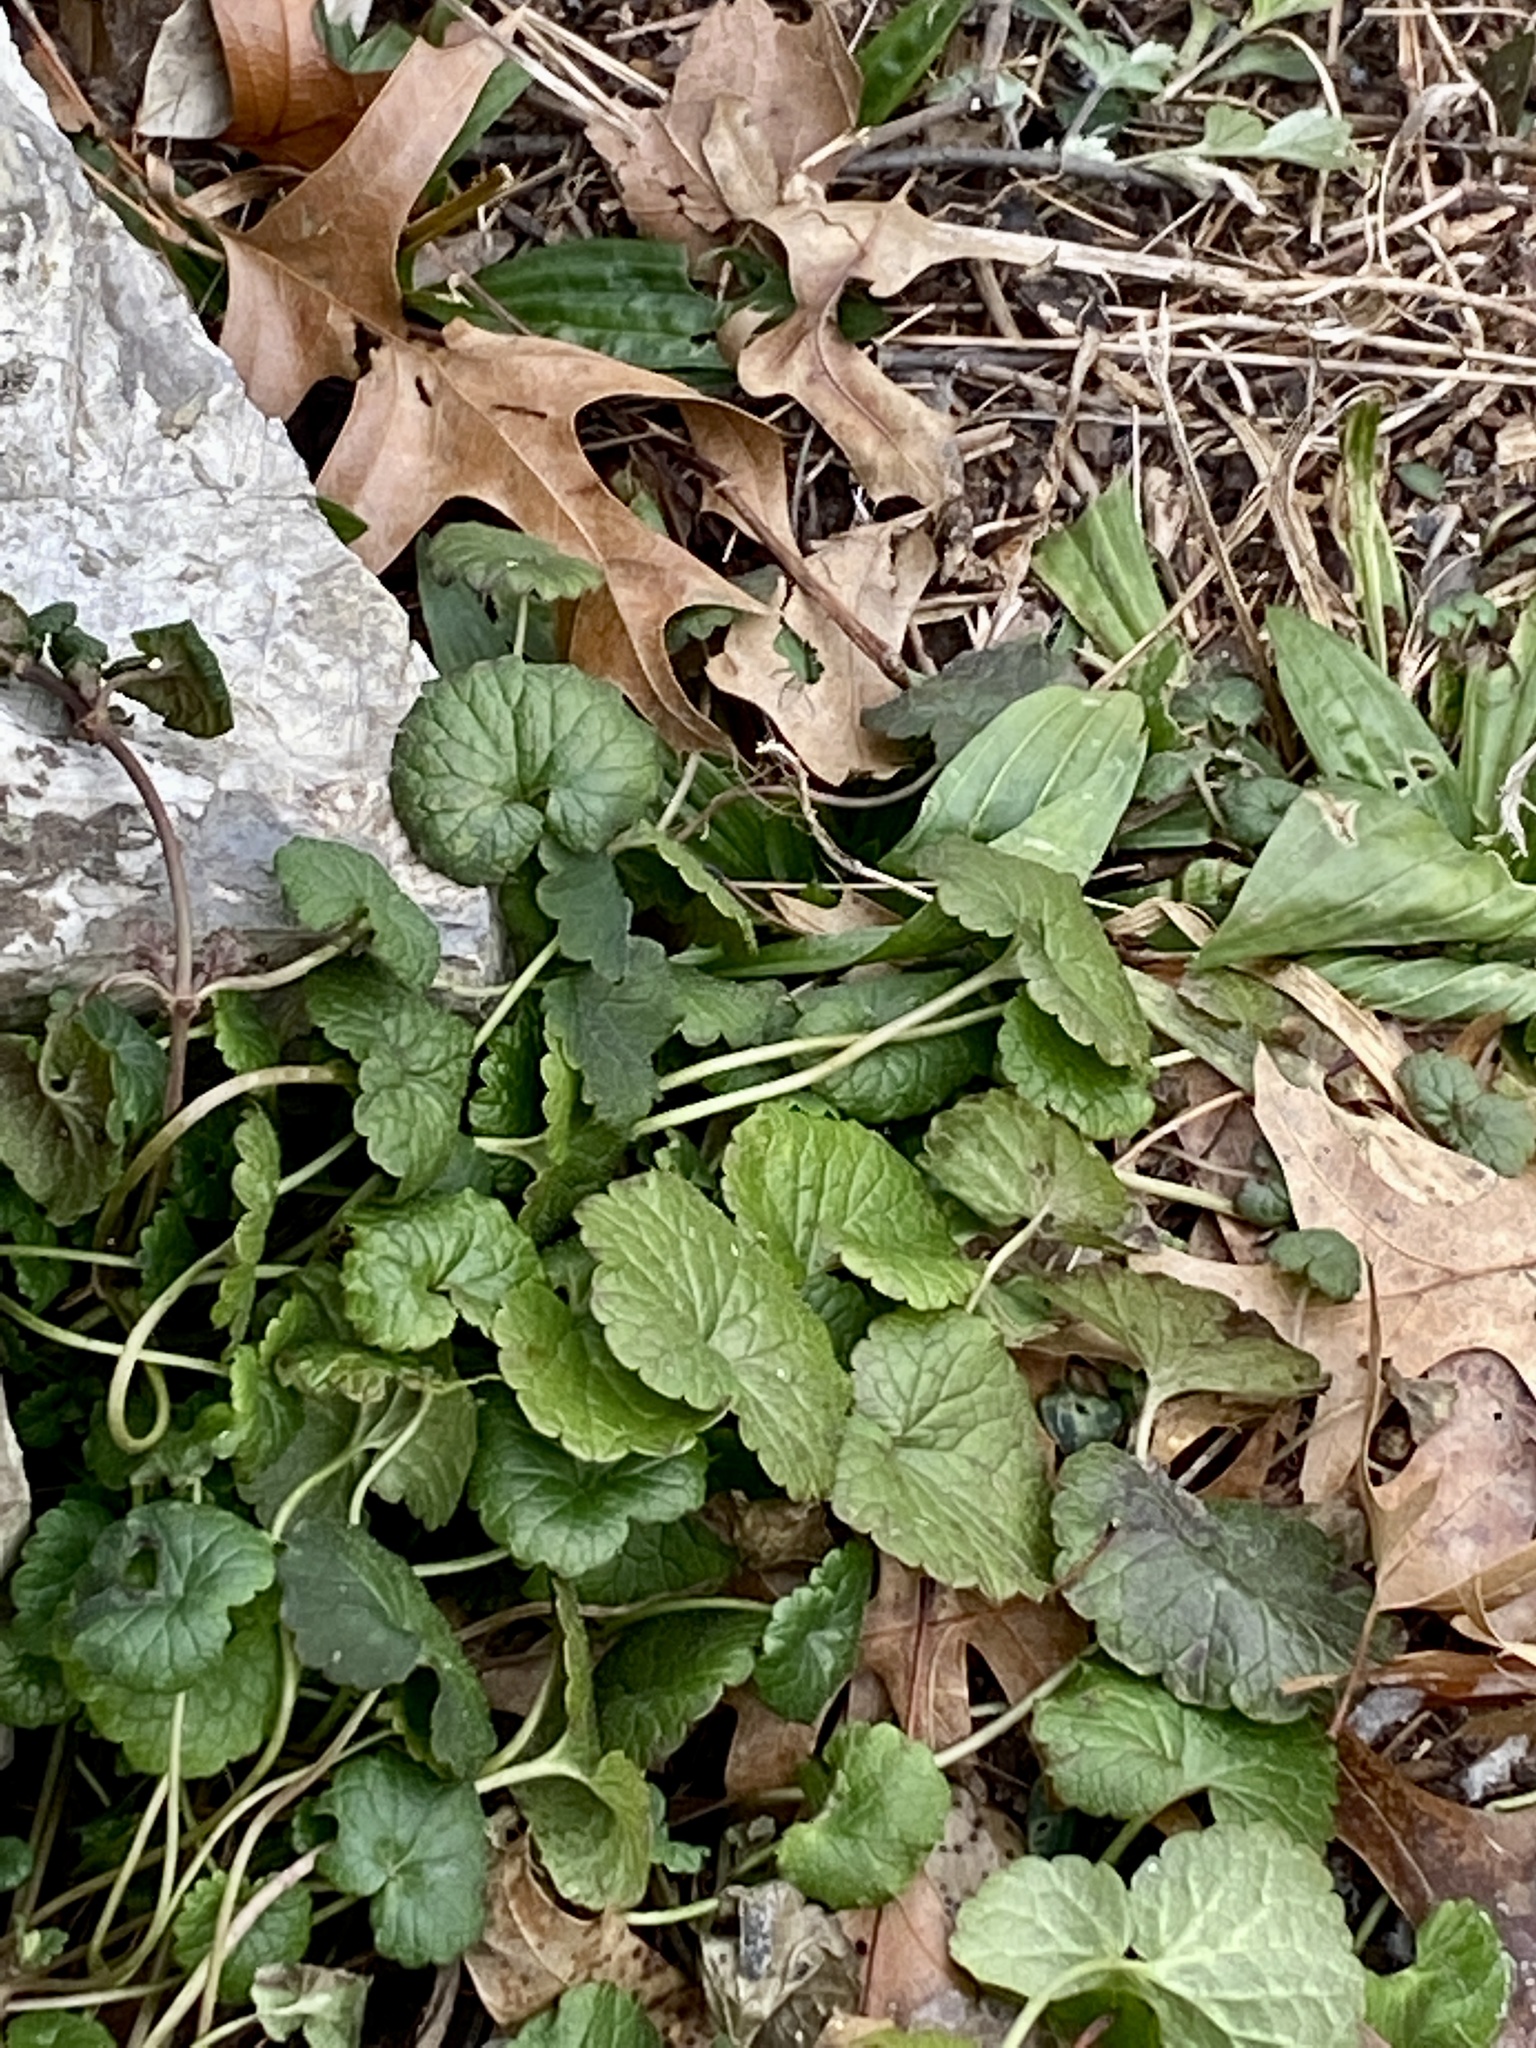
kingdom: Plantae
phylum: Tracheophyta
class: Magnoliopsida
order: Lamiales
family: Lamiaceae
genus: Glechoma
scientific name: Glechoma hederacea
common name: Ground ivy
